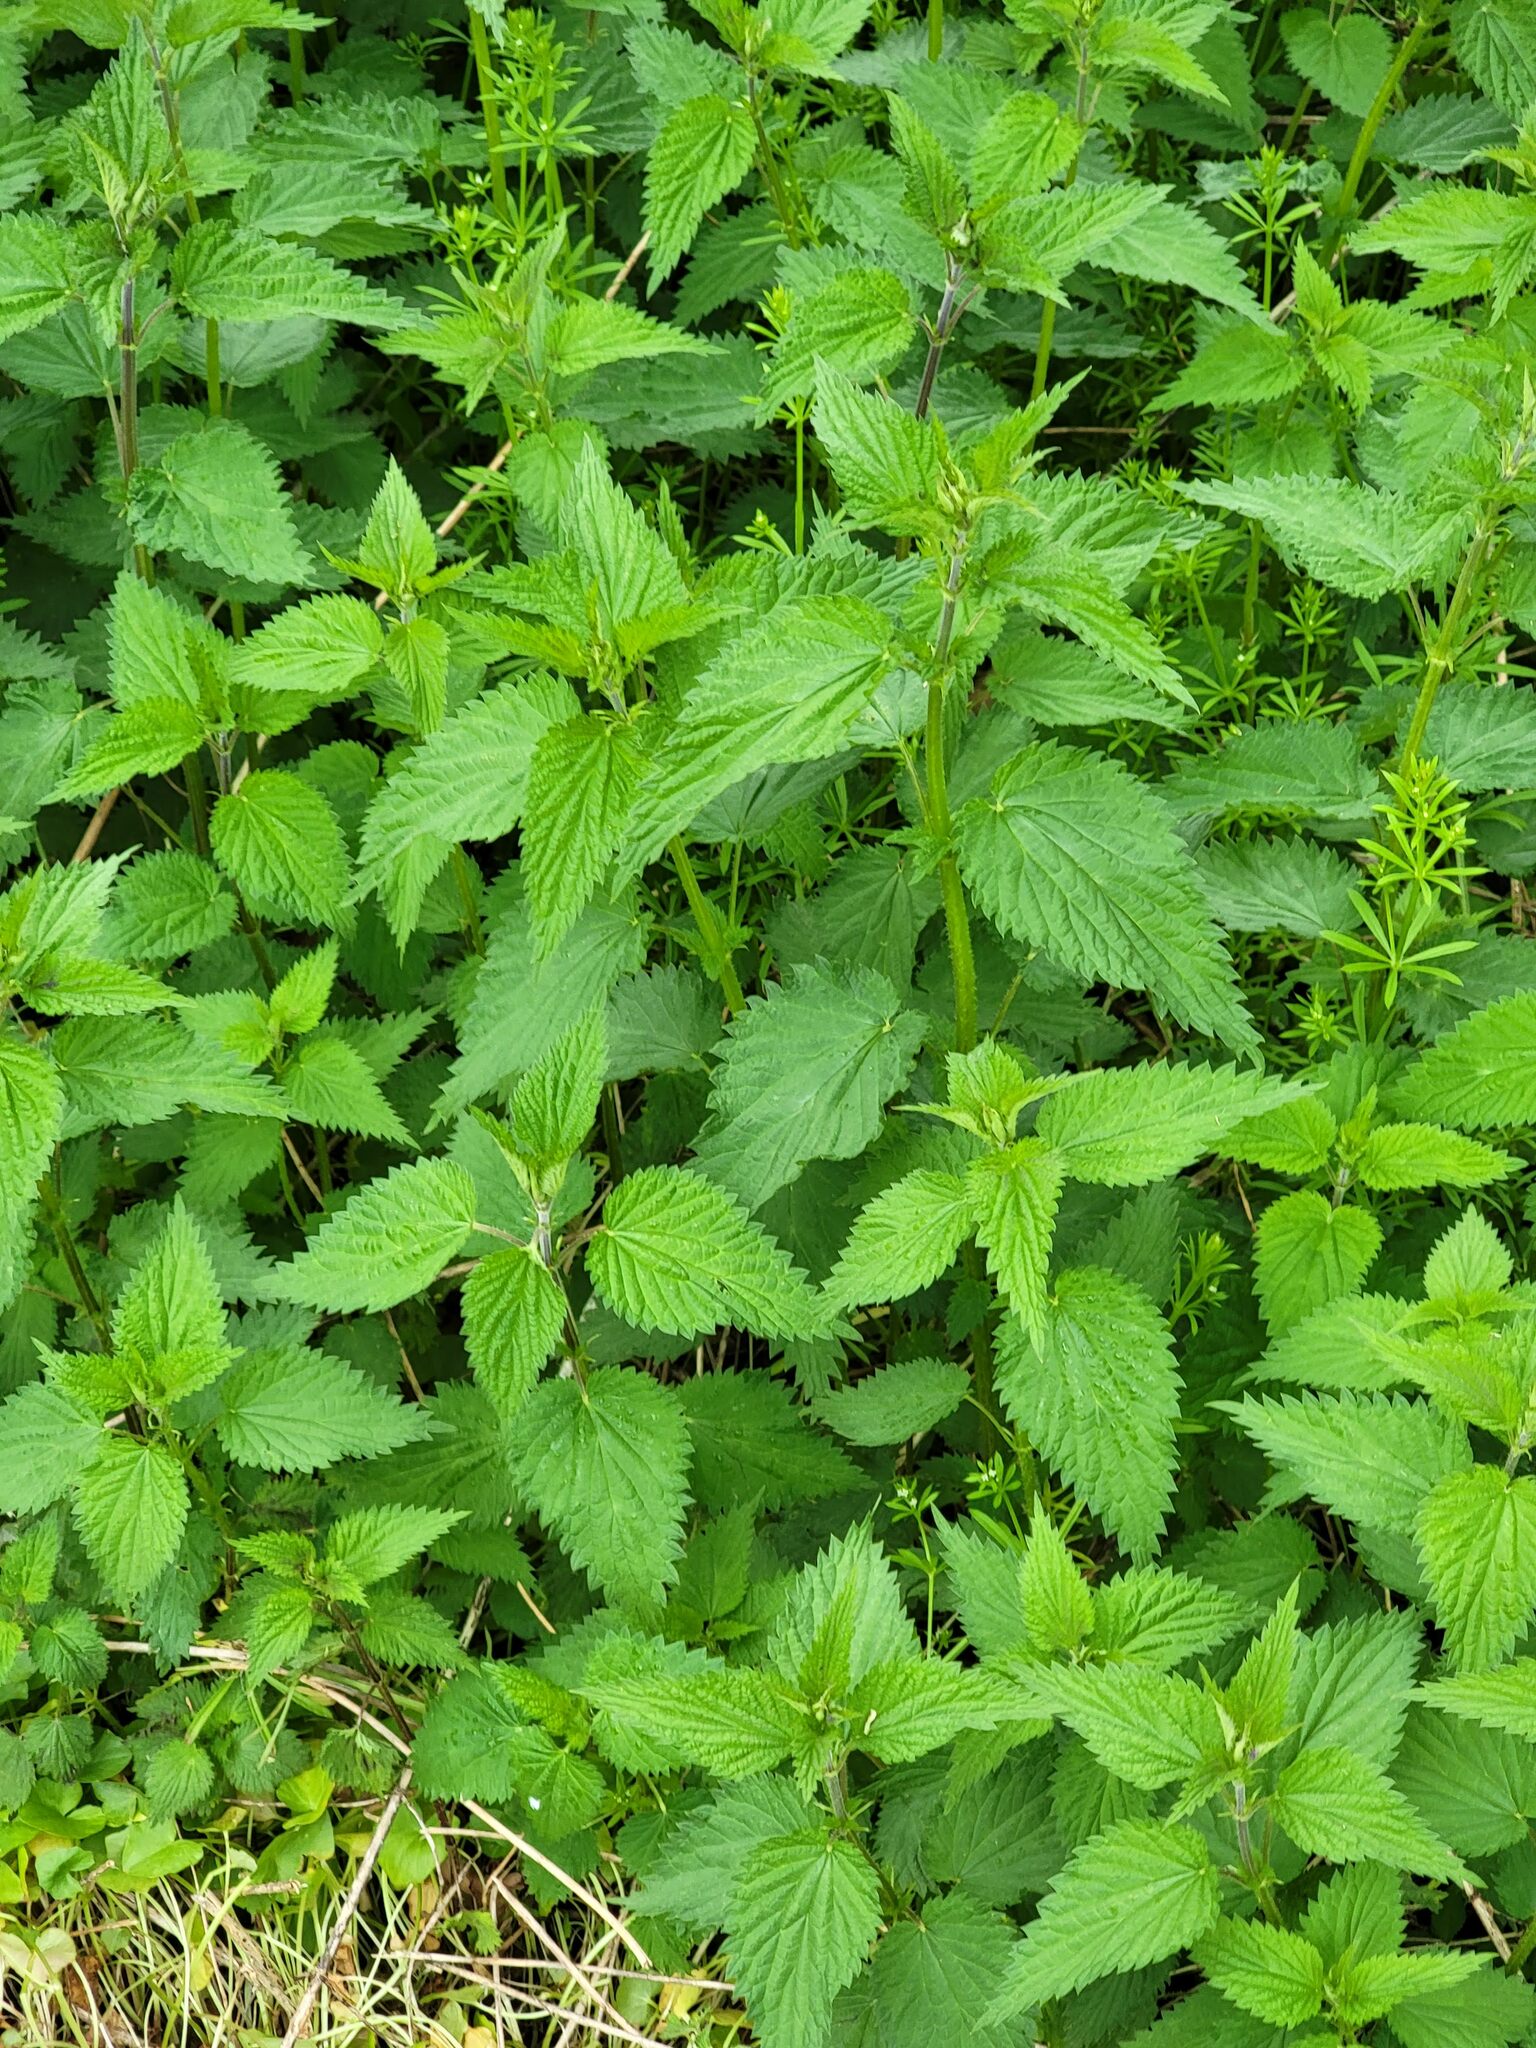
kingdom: Plantae
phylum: Tracheophyta
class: Magnoliopsida
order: Rosales
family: Urticaceae
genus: Urtica
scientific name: Urtica dioica
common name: Common nettle
